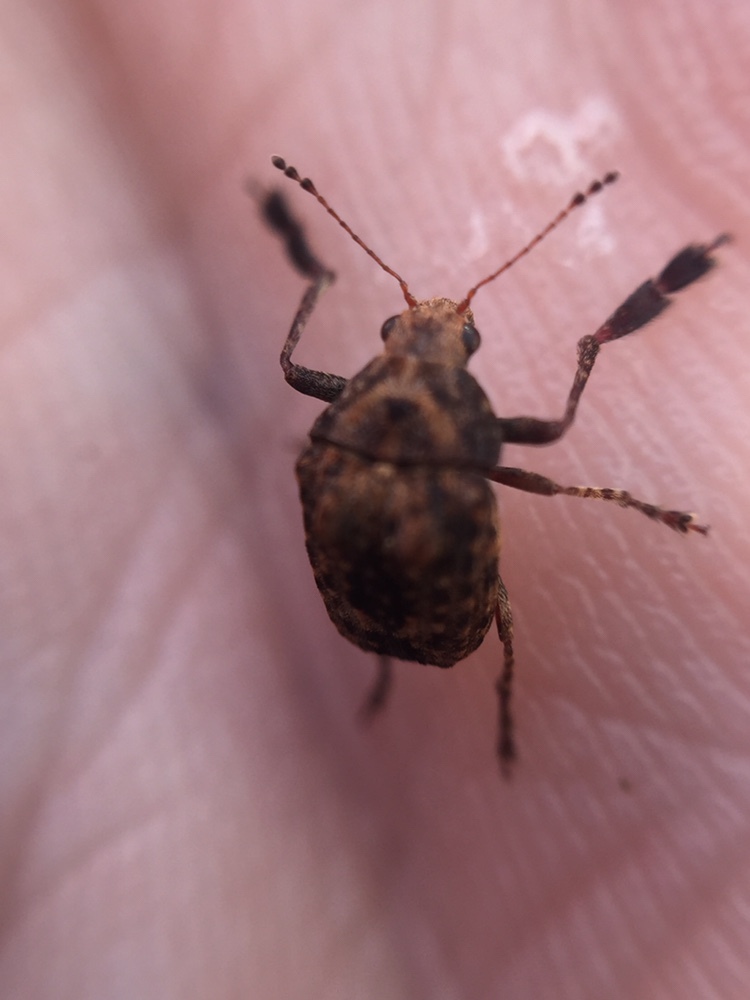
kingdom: Animalia
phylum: Arthropoda
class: Insecta
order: Coleoptera
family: Anthribidae
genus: Araecerus
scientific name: Araecerus
